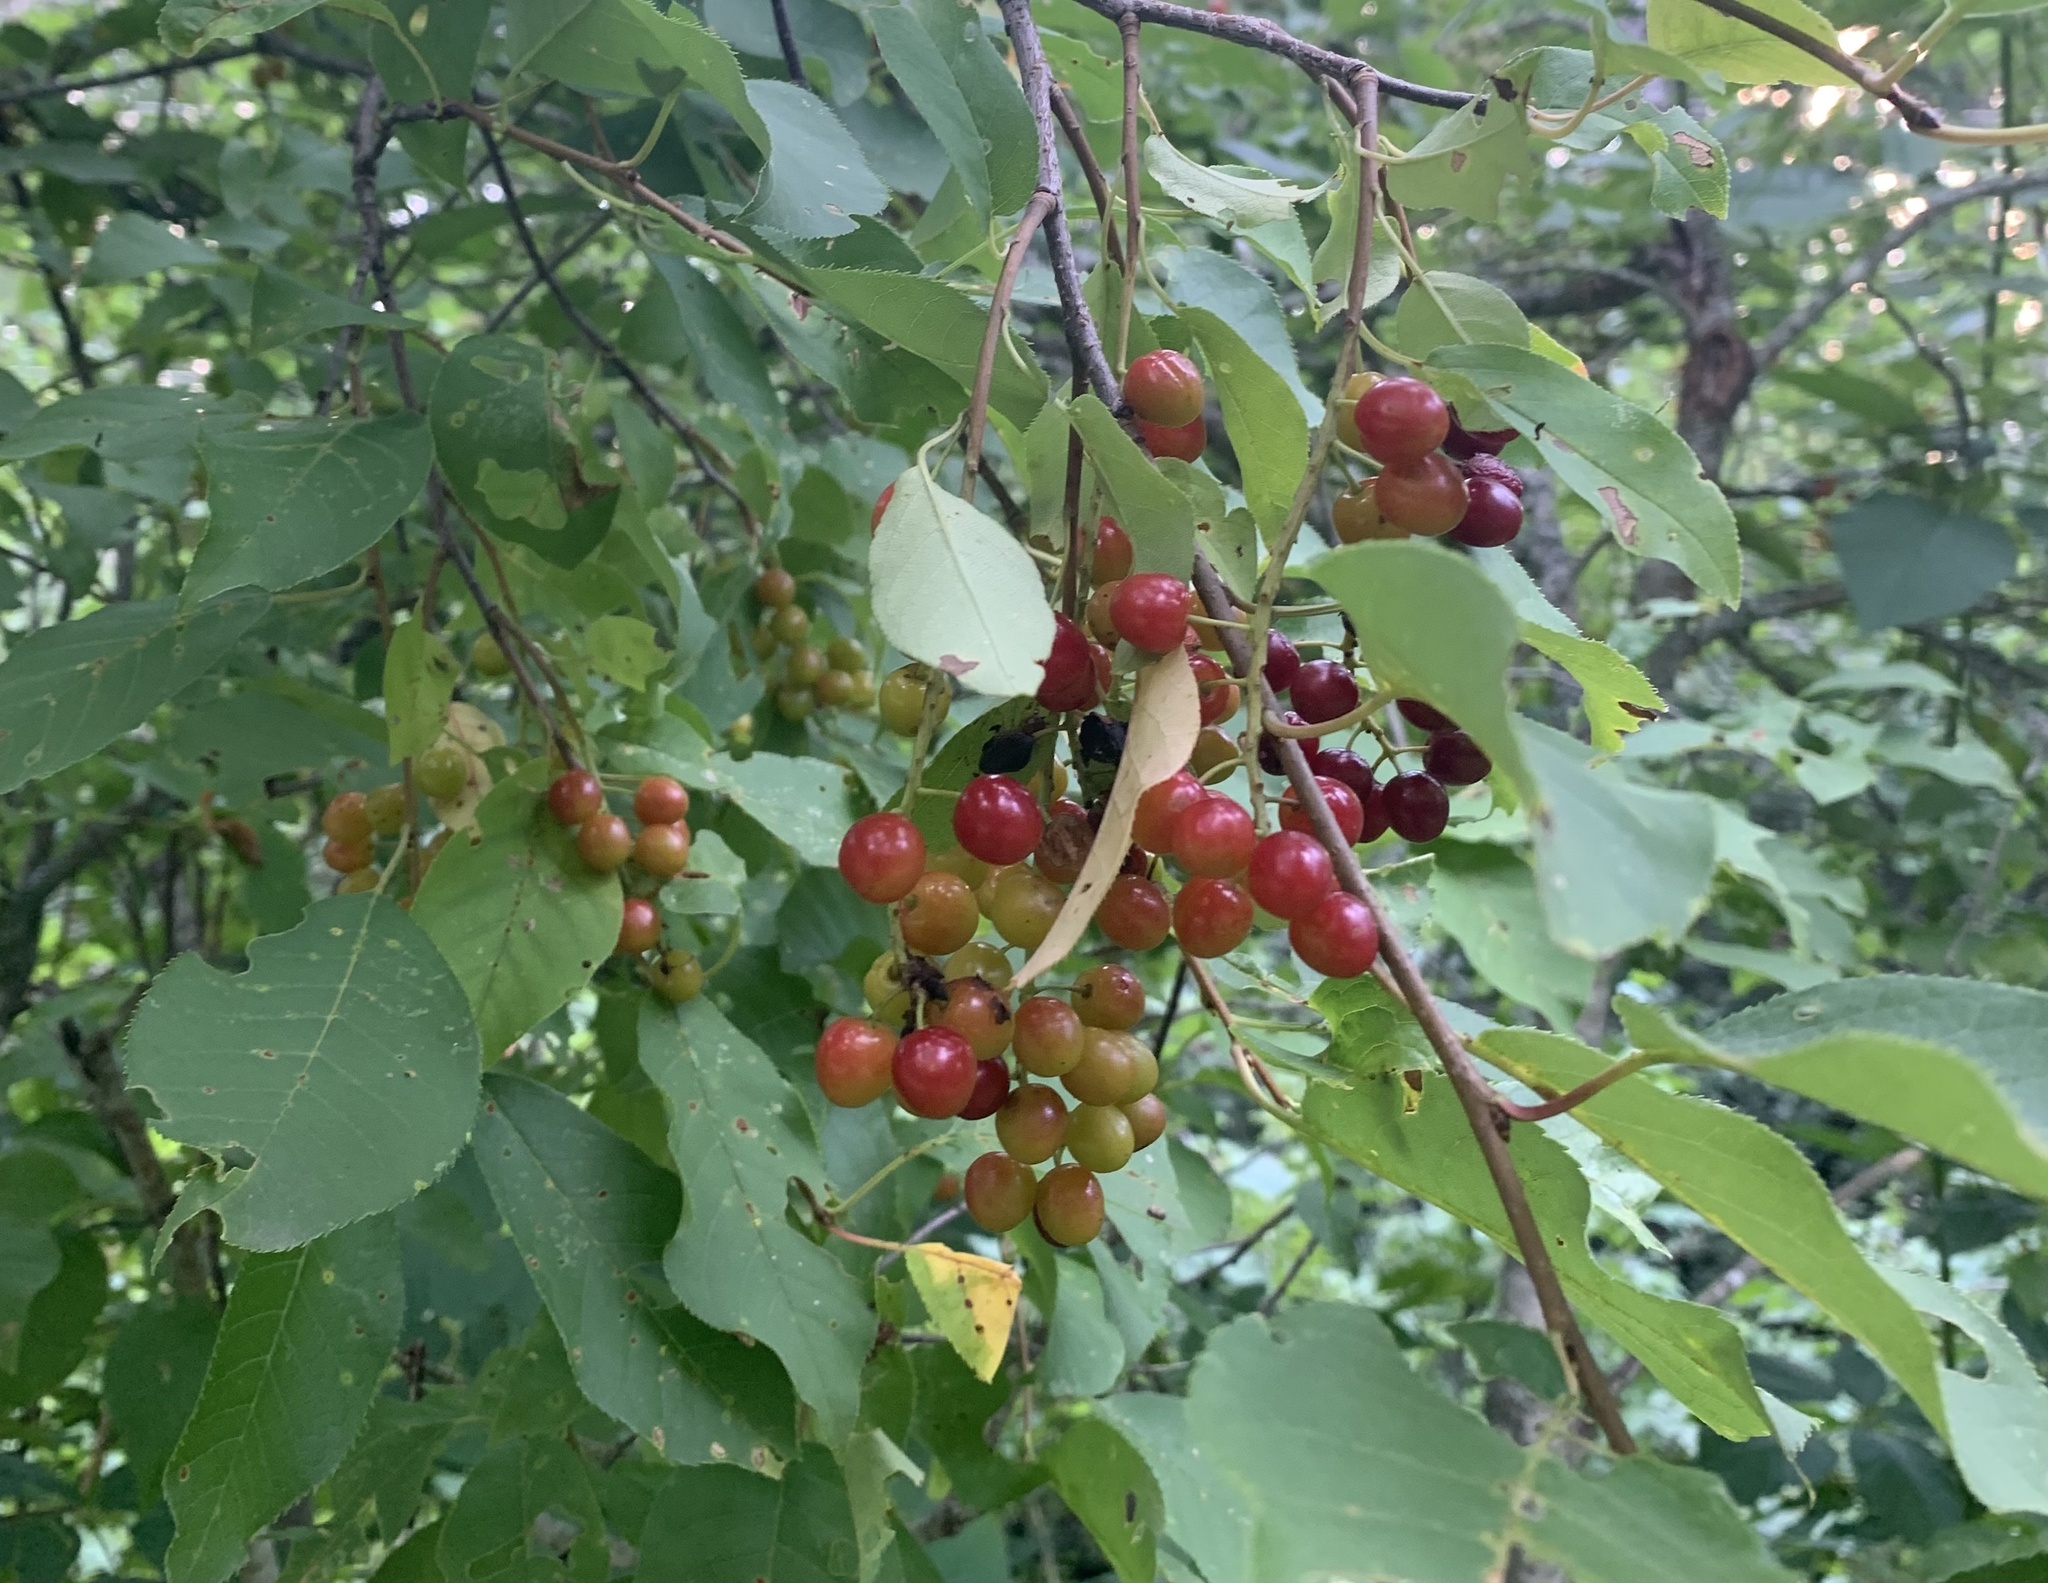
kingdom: Plantae
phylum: Tracheophyta
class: Magnoliopsida
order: Rosales
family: Rosaceae
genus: Prunus
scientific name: Prunus virginiana
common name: Chokecherry
